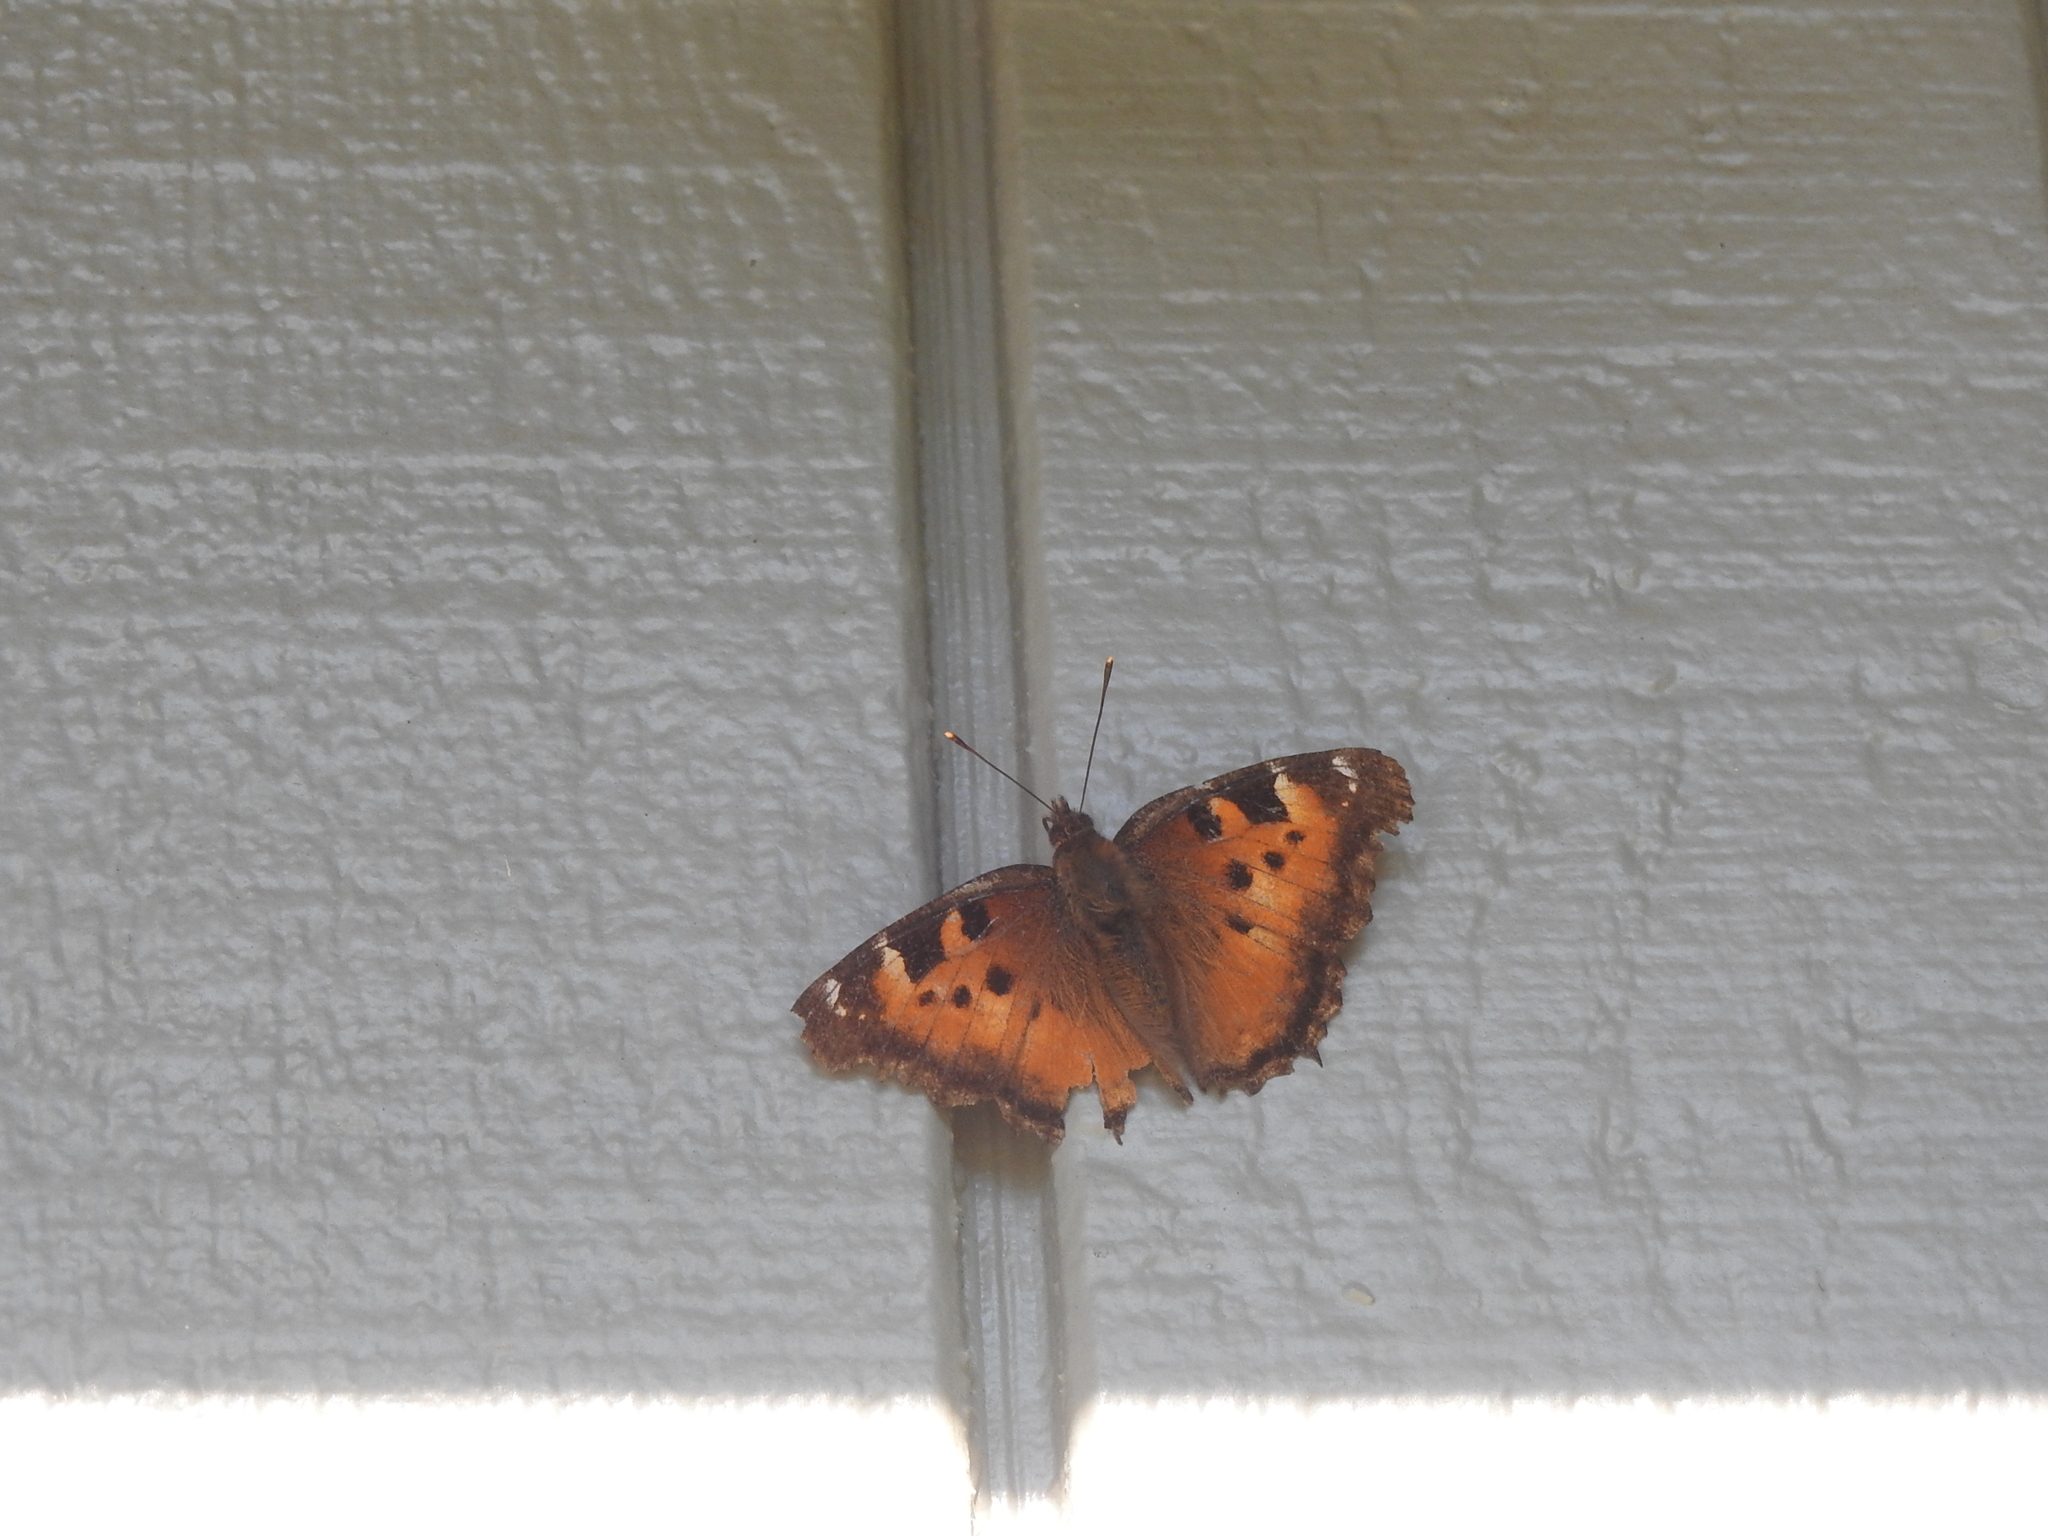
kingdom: Animalia
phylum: Arthropoda
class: Insecta
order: Lepidoptera
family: Nymphalidae
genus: Nymphalis
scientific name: Nymphalis californica
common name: California tortoiseshell
